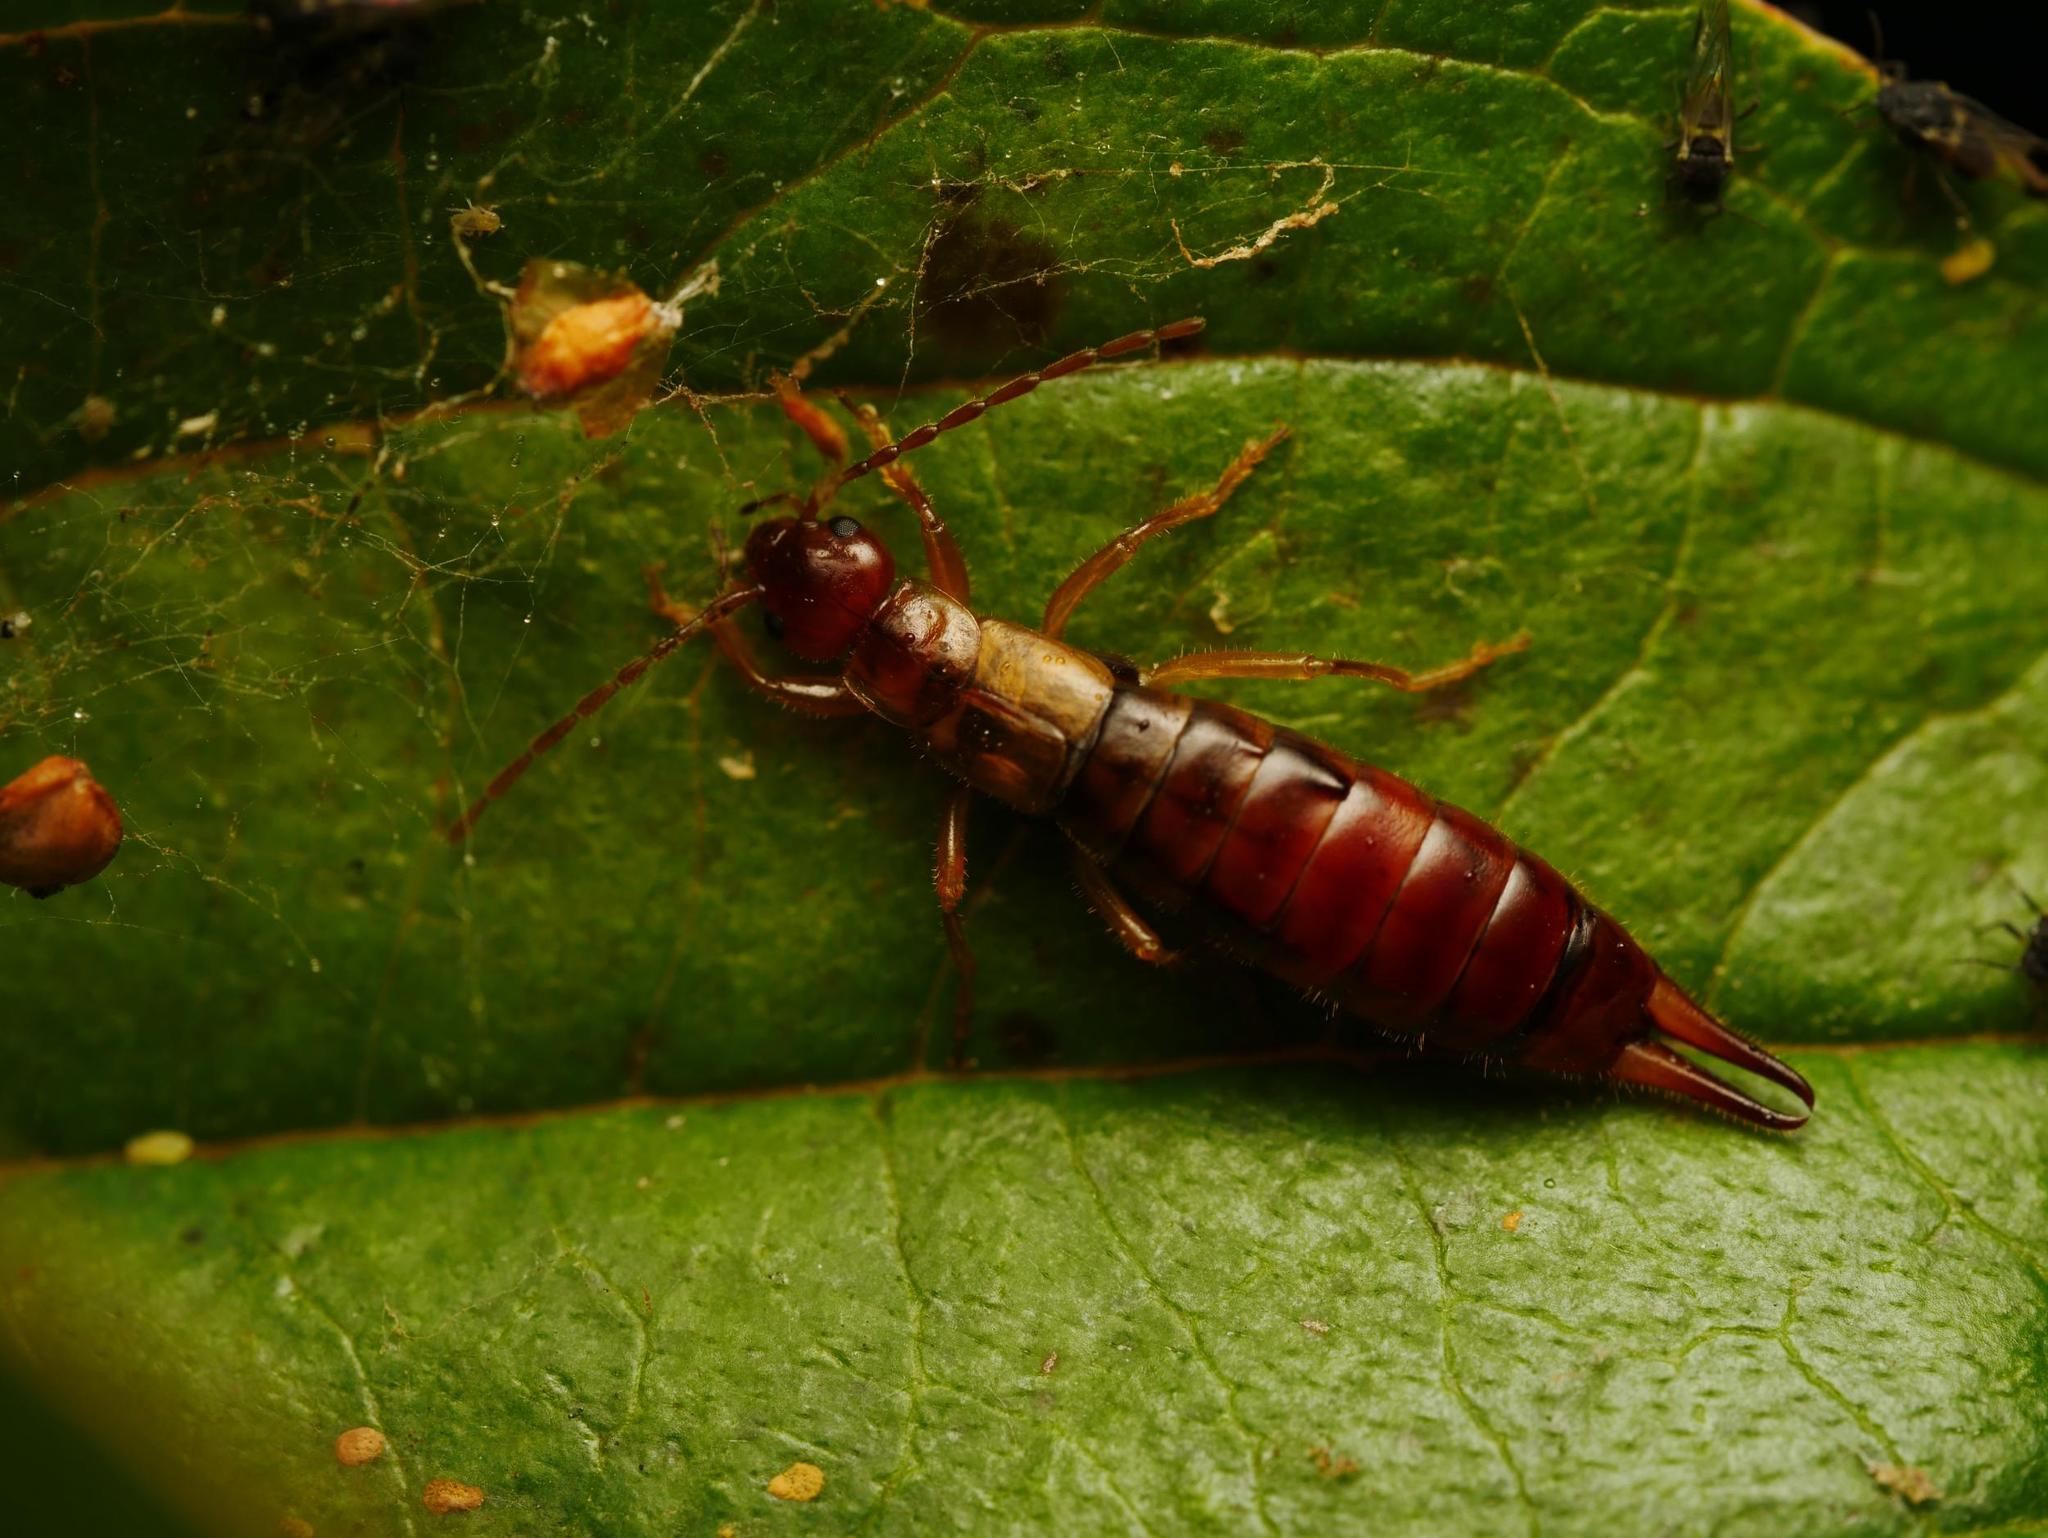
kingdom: Animalia
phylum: Arthropoda
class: Insecta
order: Dermaptera
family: Forficulidae
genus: Apterygida
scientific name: Apterygida albipennis
